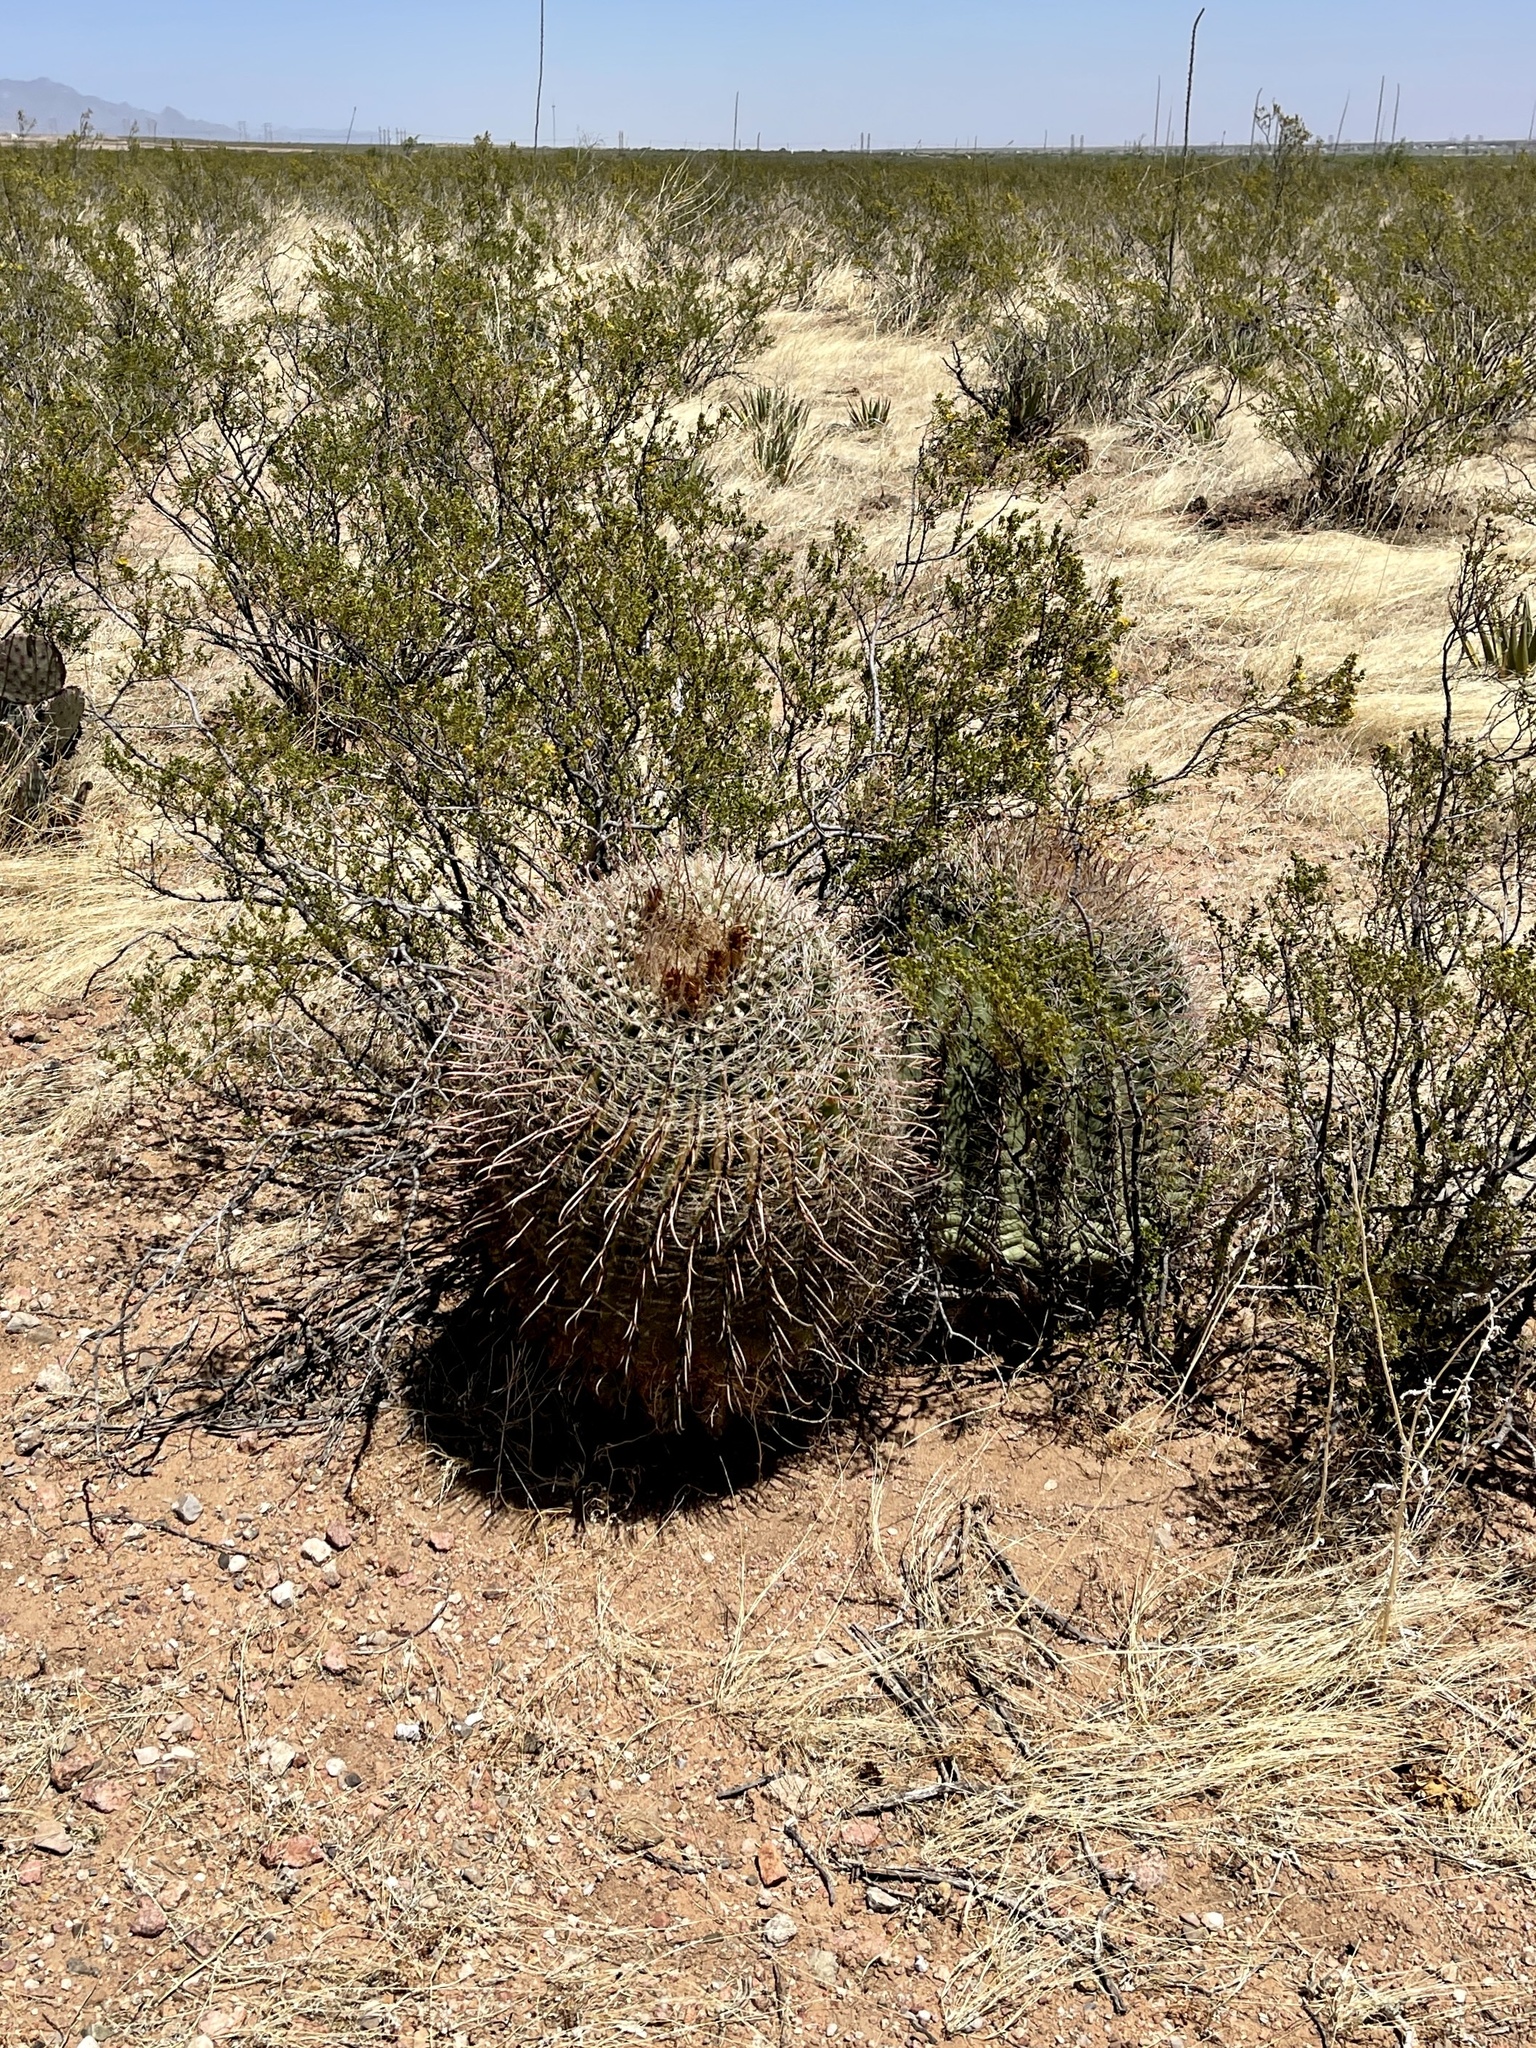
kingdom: Plantae
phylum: Tracheophyta
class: Magnoliopsida
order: Caryophyllales
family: Cactaceae
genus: Ferocactus
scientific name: Ferocactus wislizeni
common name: Candy barrel cactus
